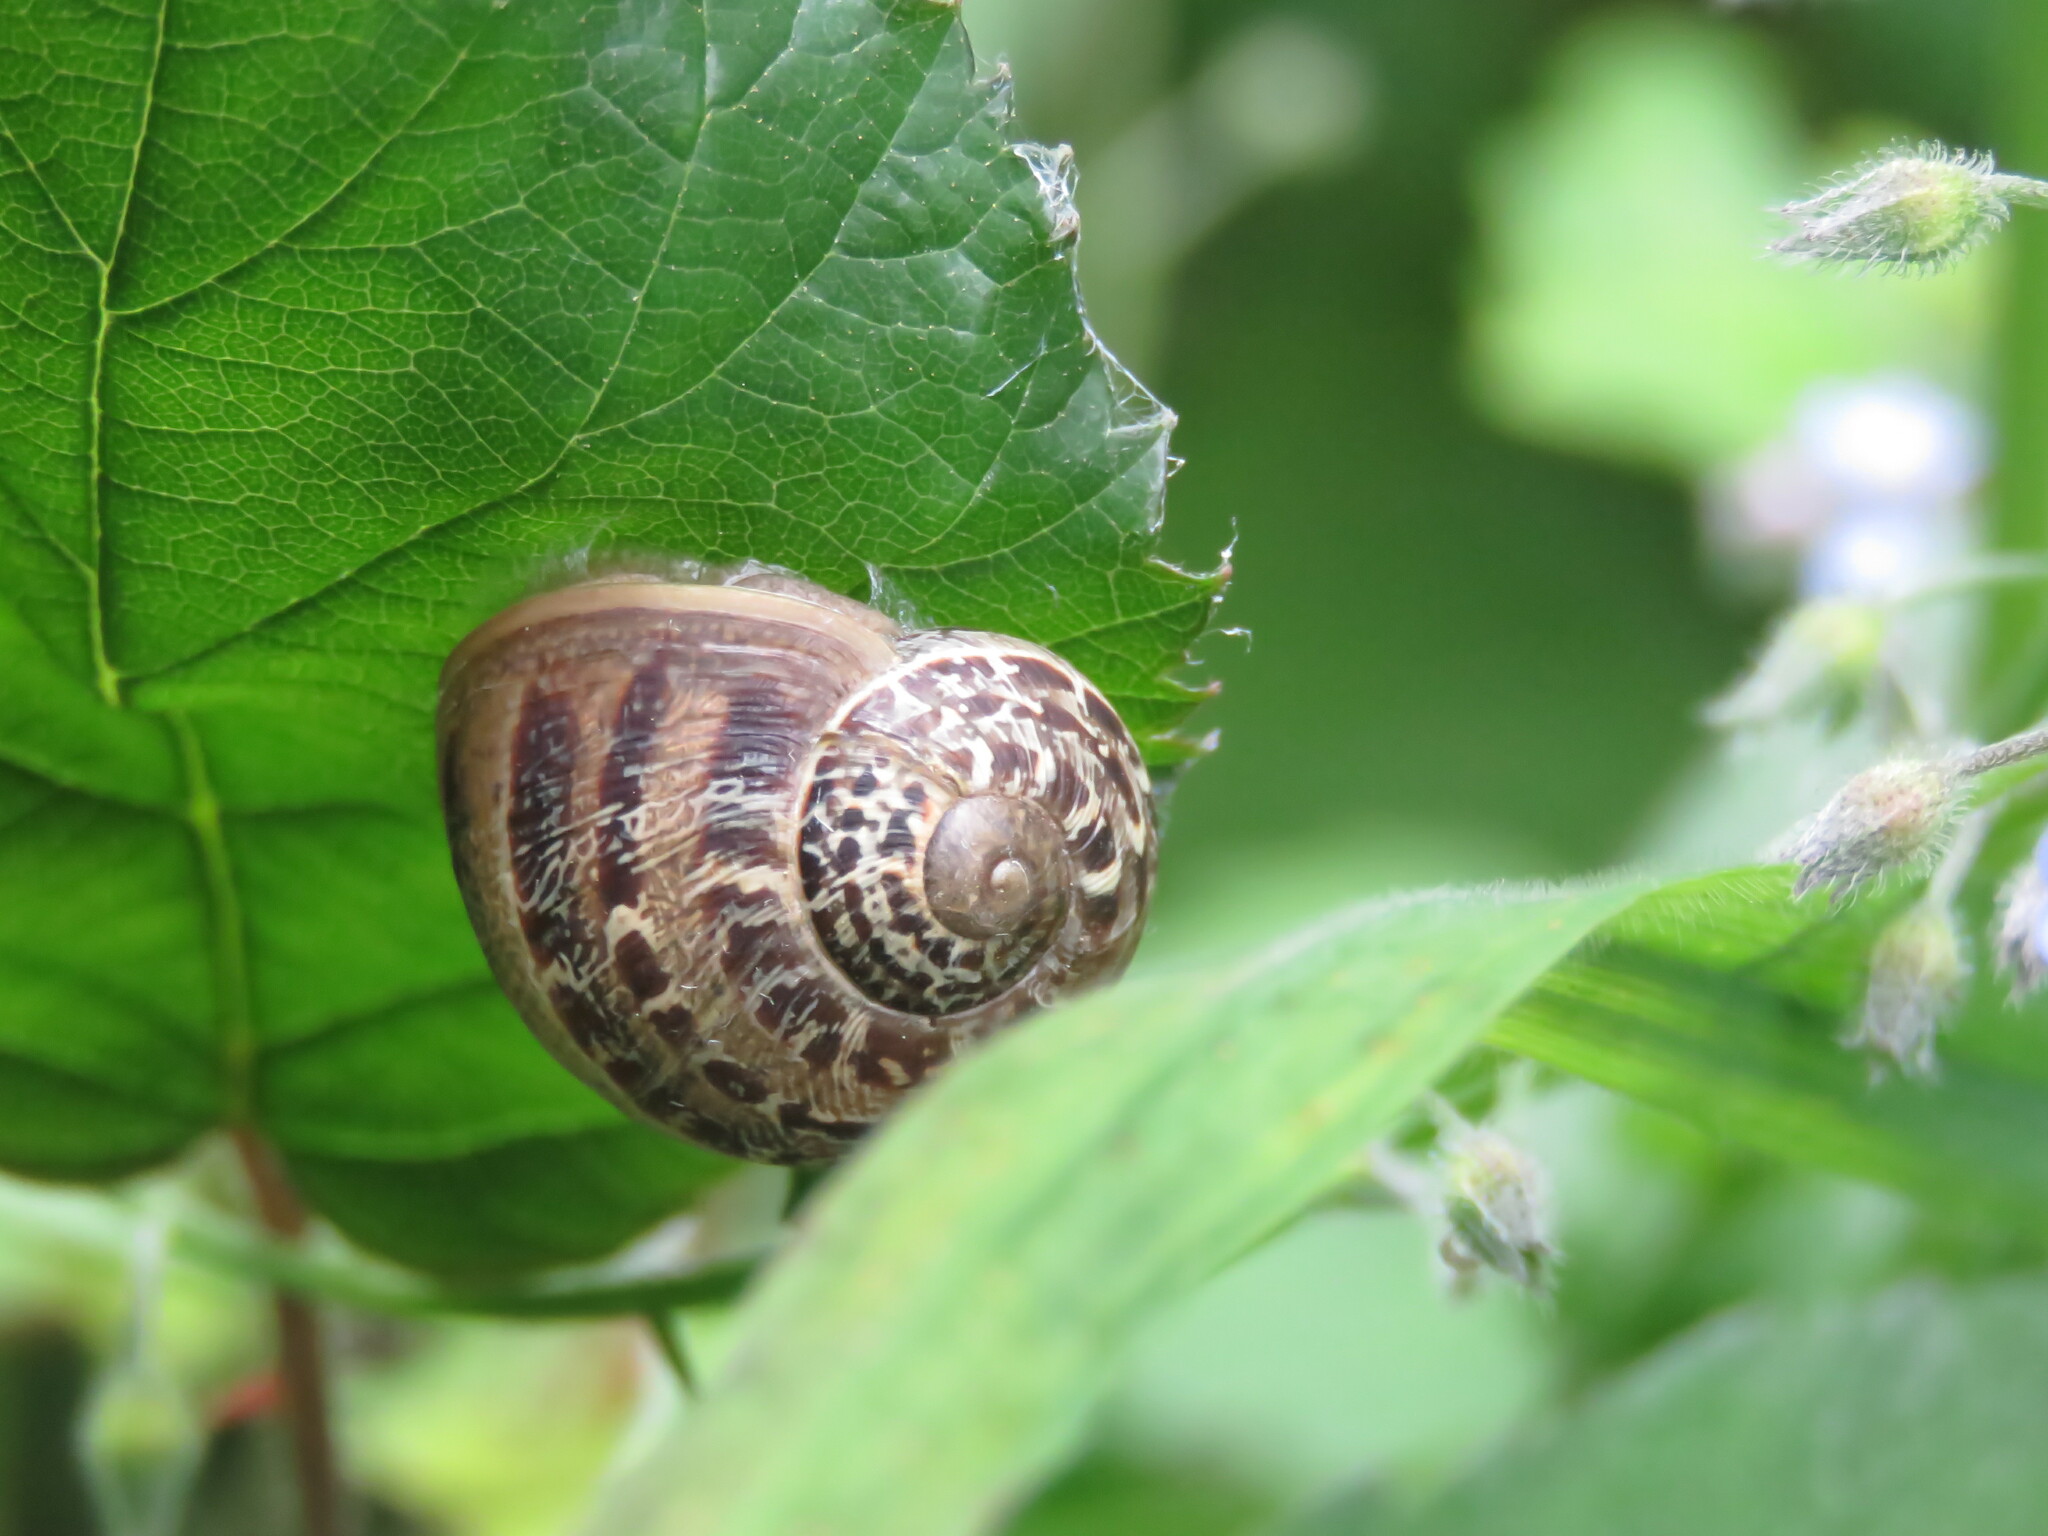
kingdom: Animalia
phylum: Mollusca
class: Gastropoda
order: Stylommatophora
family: Helicidae
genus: Cornu
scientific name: Cornu aspersum
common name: Brown garden snail
